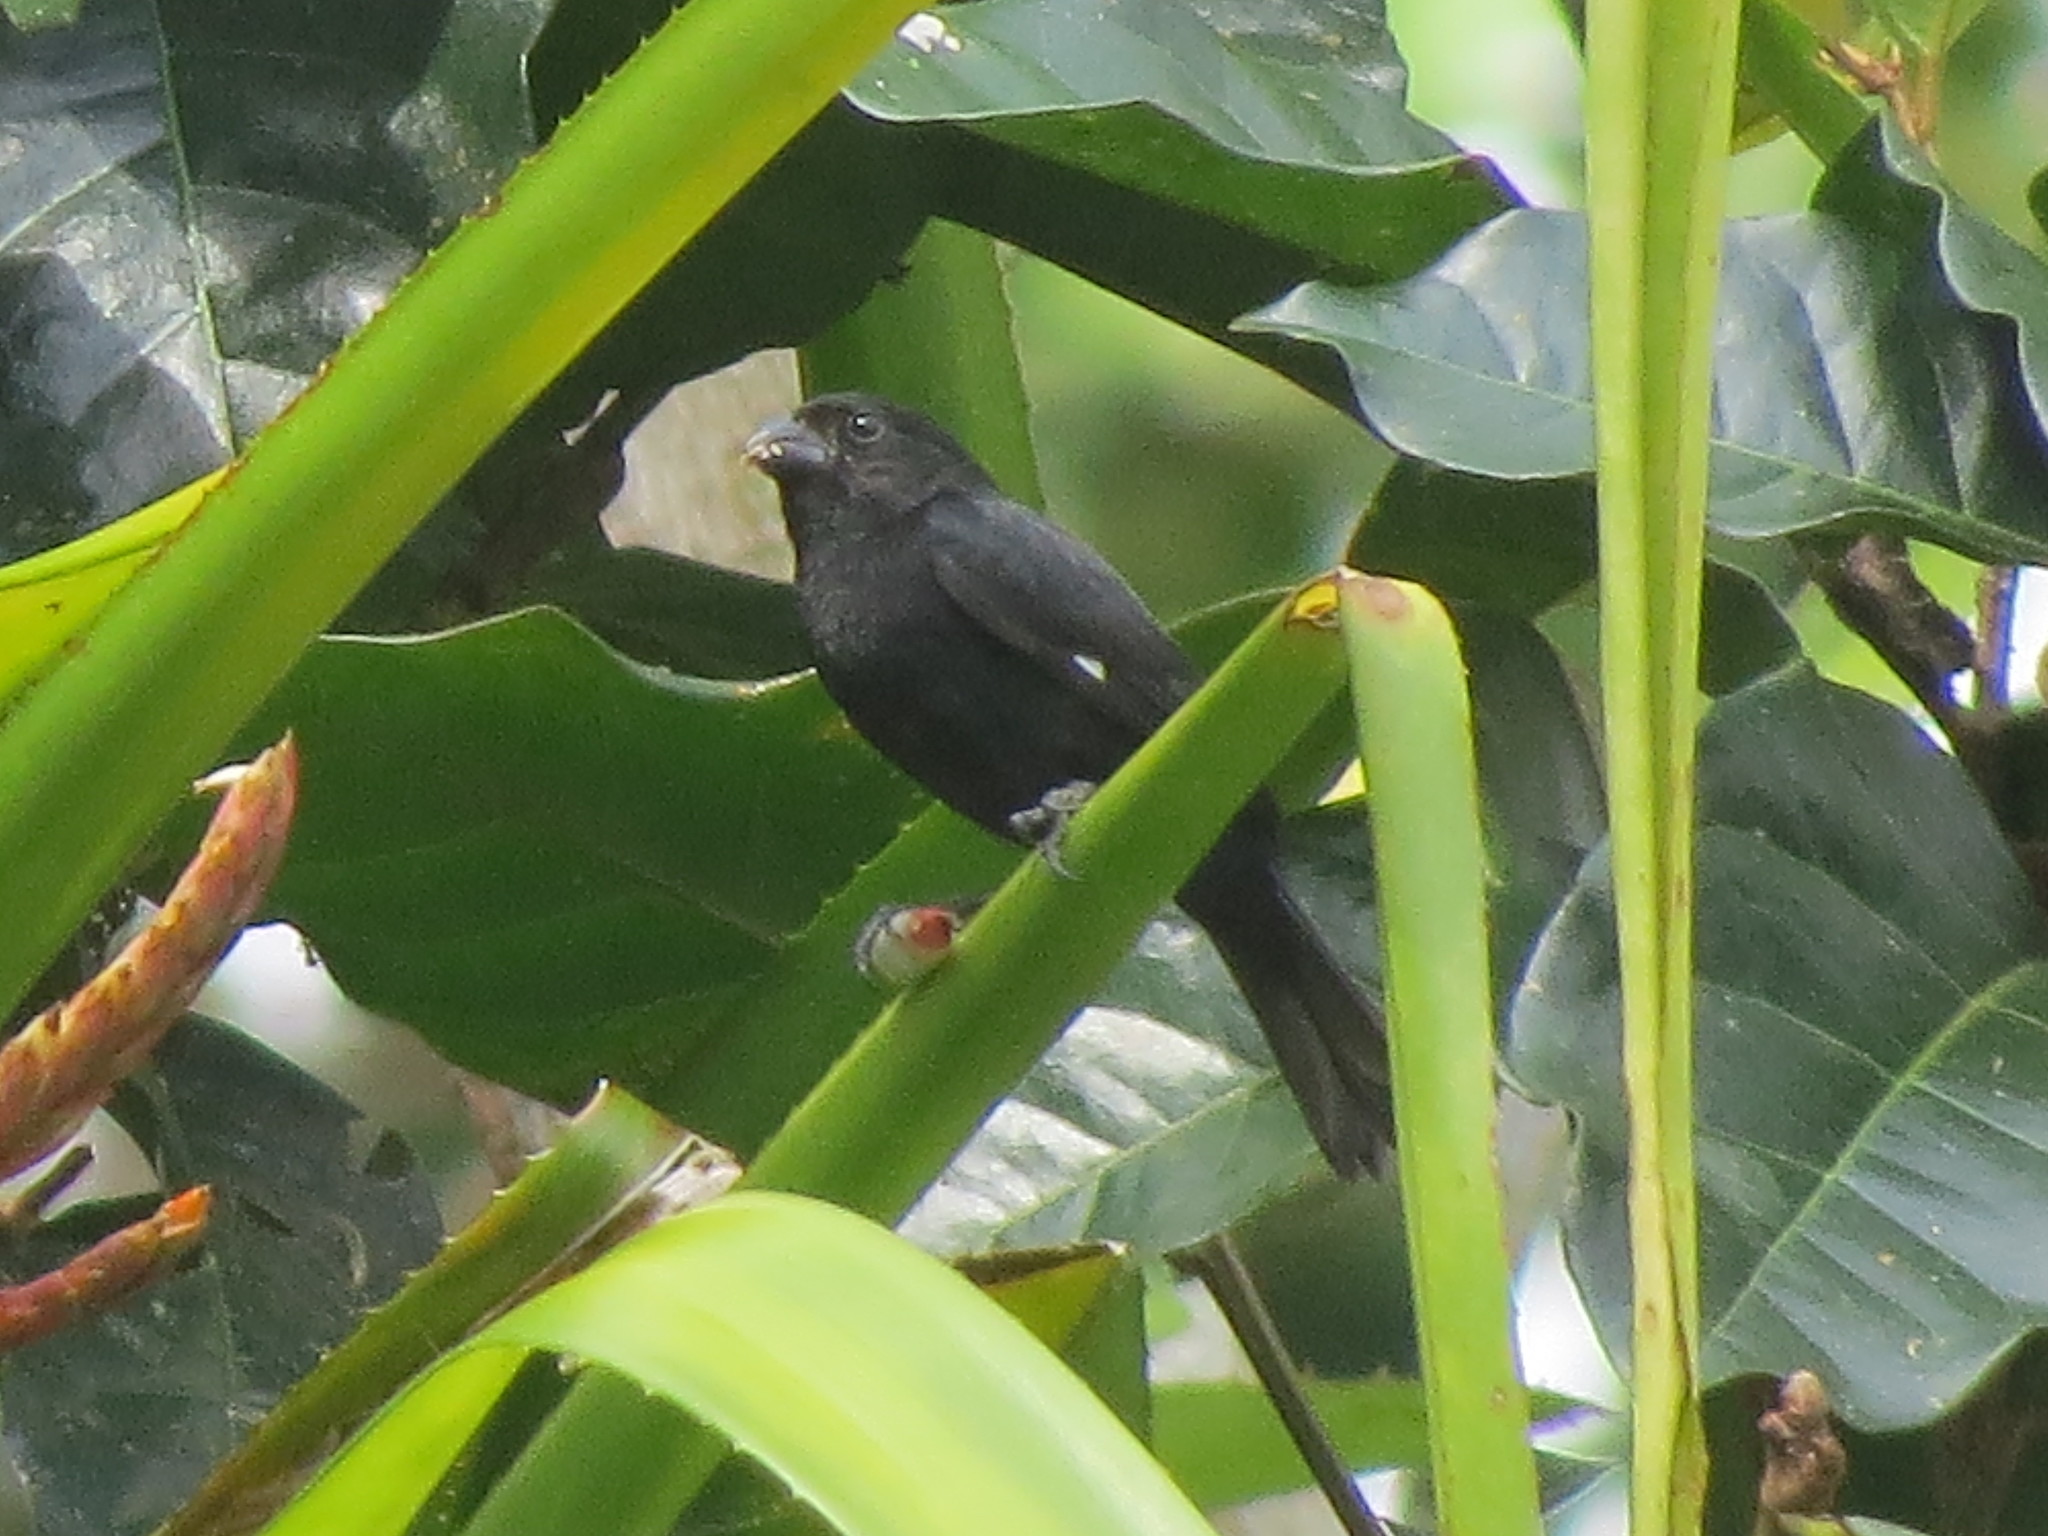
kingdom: Animalia
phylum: Chordata
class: Aves
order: Passeriformes
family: Thraupidae
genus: Sporophila
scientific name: Sporophila corvina
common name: Variable seedeater
